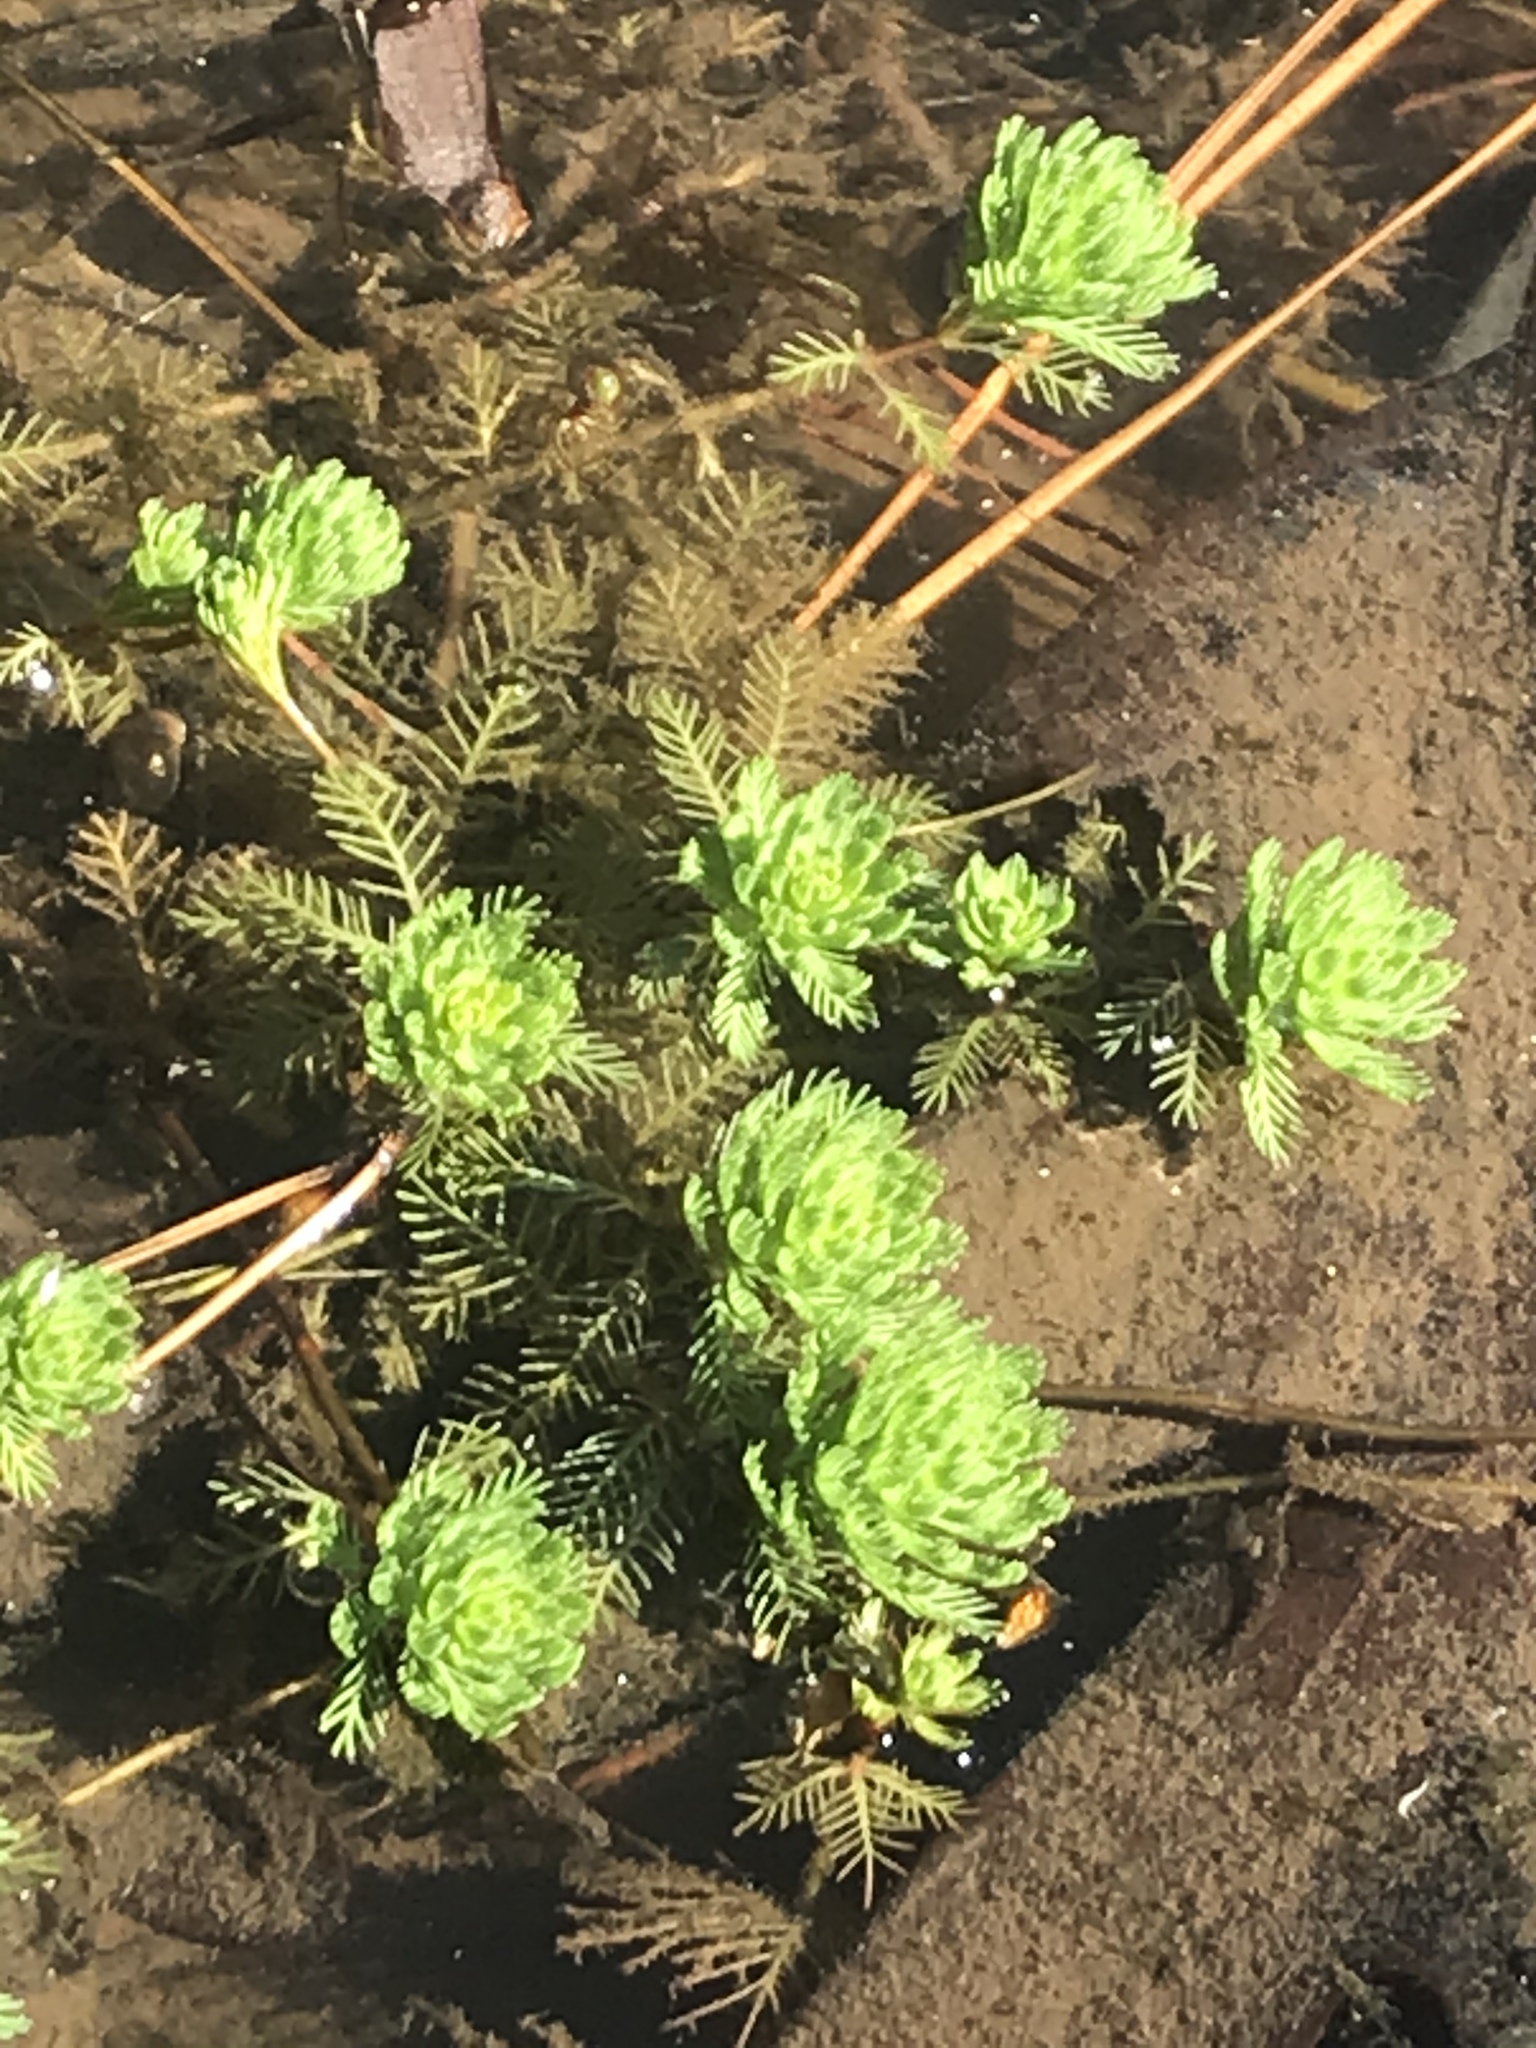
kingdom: Plantae
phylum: Tracheophyta
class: Magnoliopsida
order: Saxifragales
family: Haloragaceae
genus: Myriophyllum
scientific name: Myriophyllum aquaticum
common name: Parrot's feather
